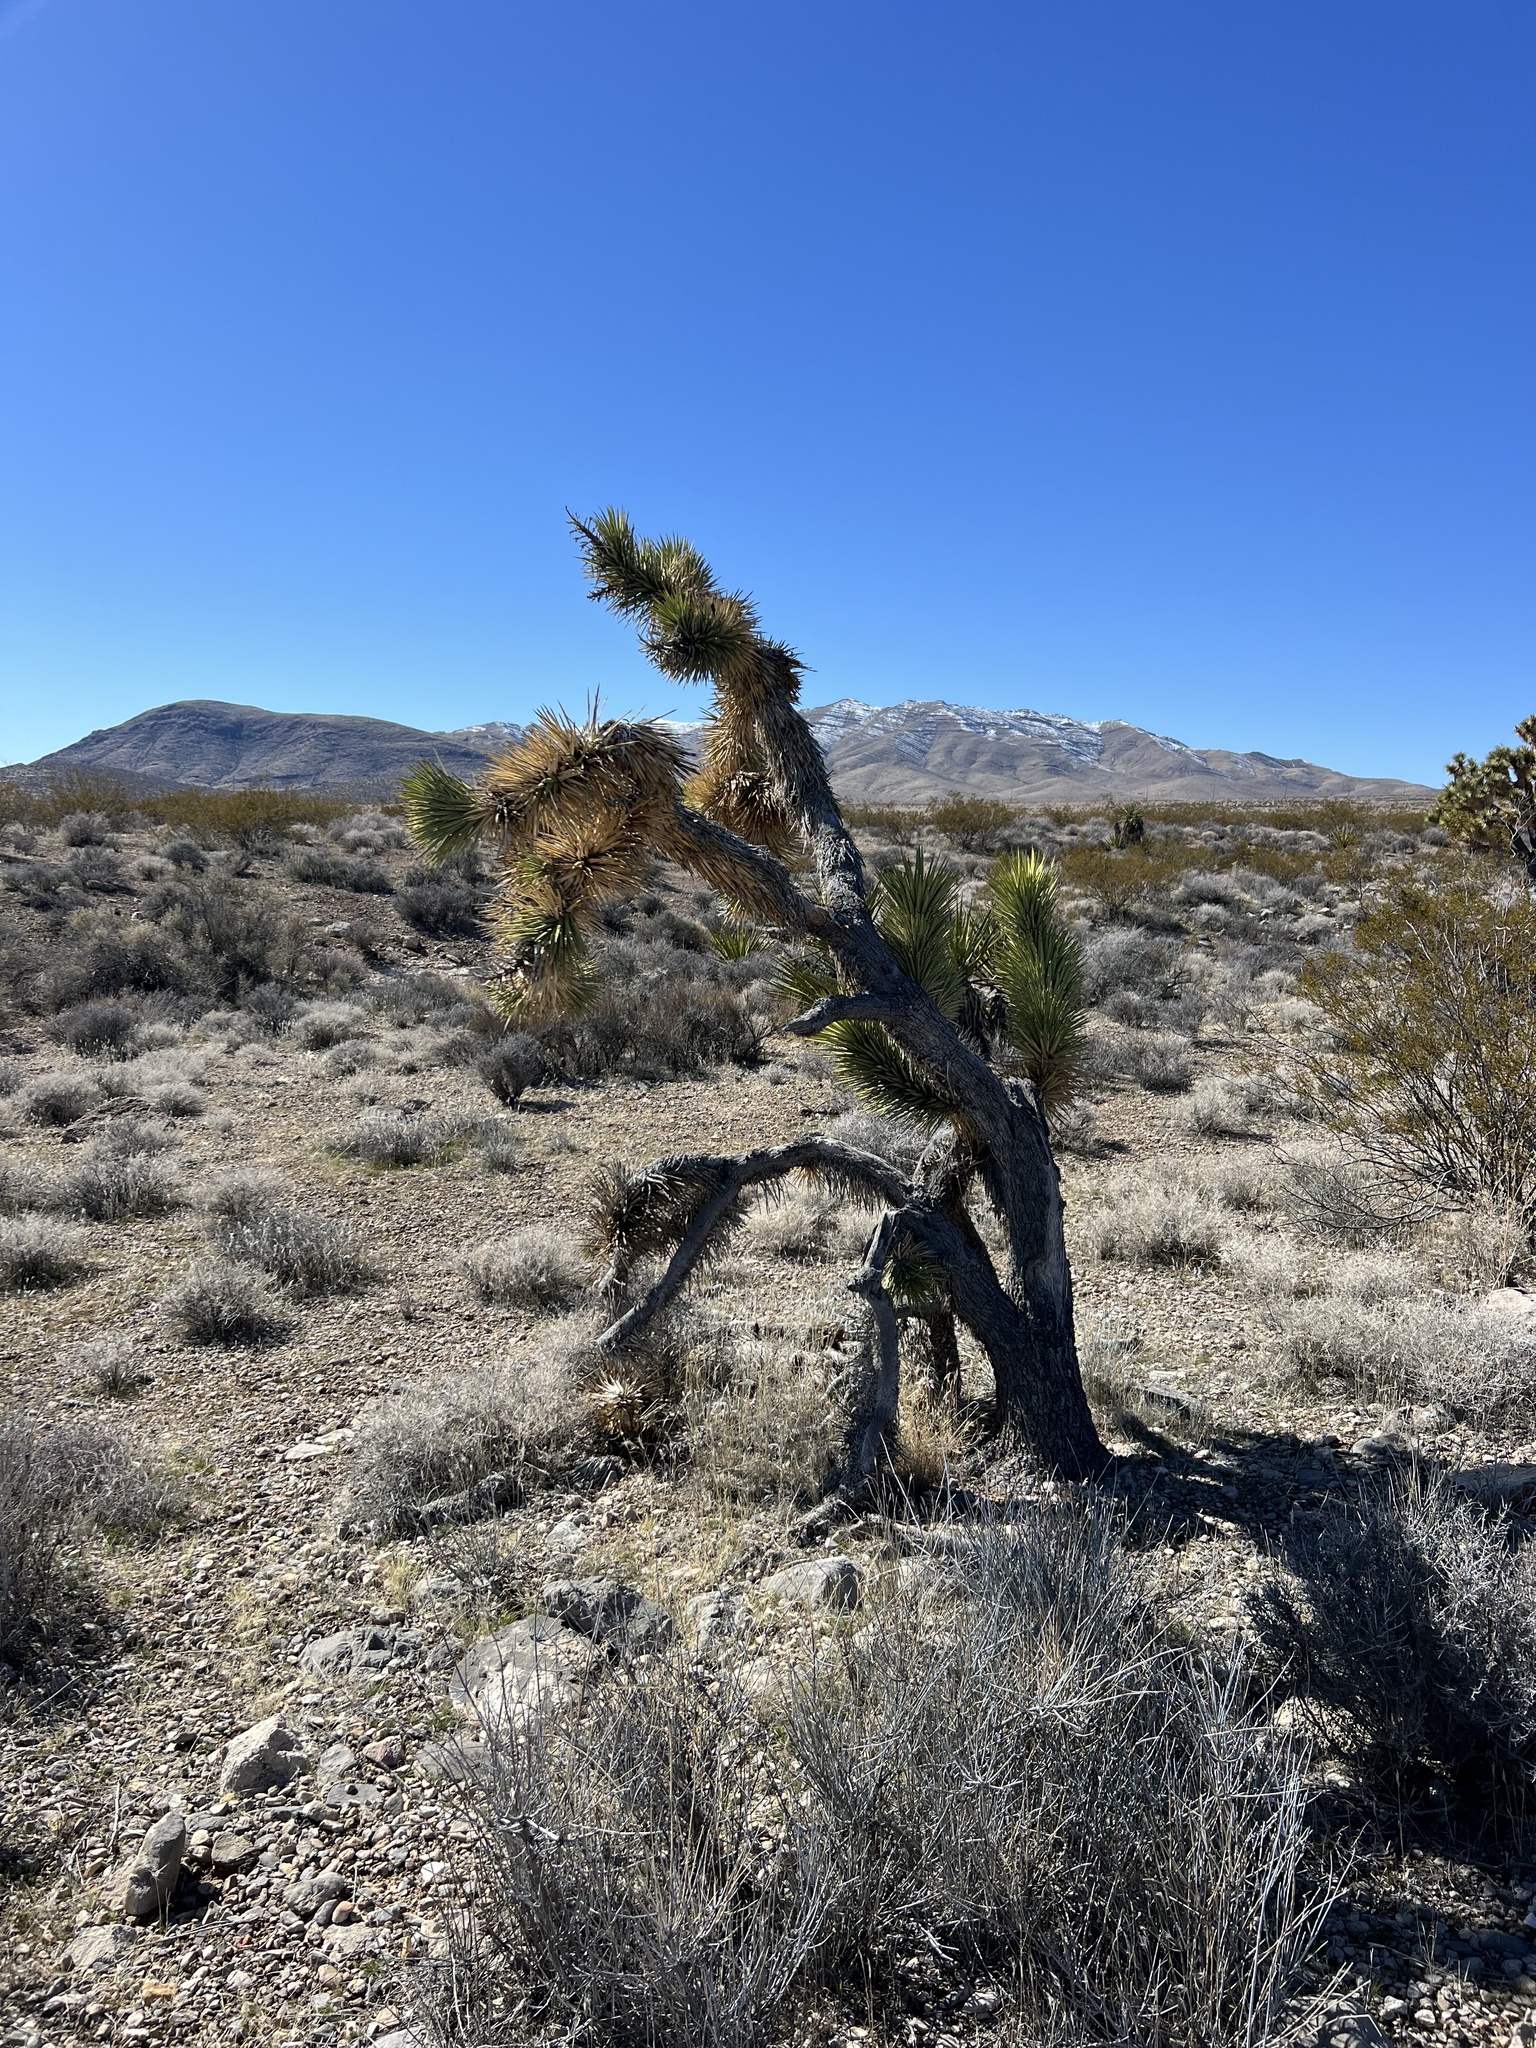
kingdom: Plantae
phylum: Tracheophyta
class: Liliopsida
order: Asparagales
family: Asparagaceae
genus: Yucca
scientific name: Yucca brevifolia
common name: Joshua tree
